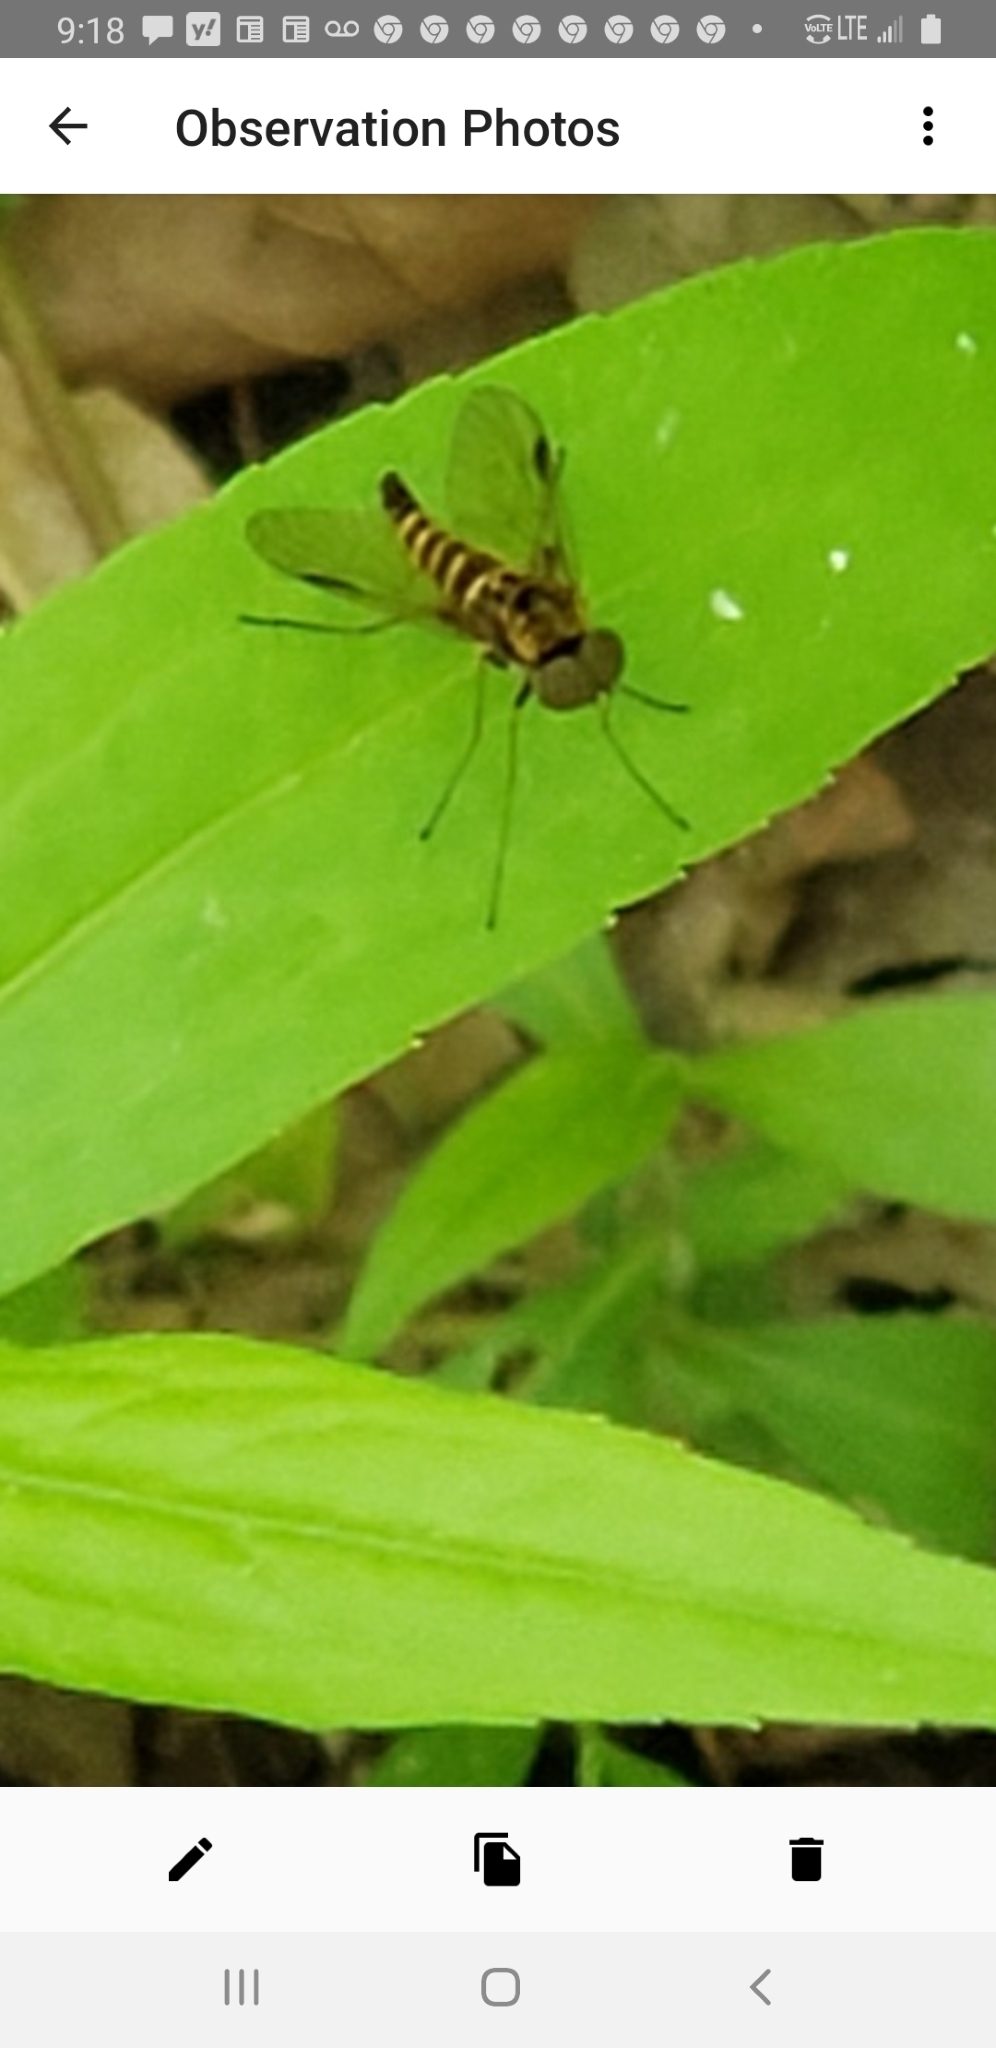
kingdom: Animalia
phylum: Arthropoda
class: Insecta
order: Diptera
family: Rhagionidae
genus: Chrysopilus
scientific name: Chrysopilus fasciatus
